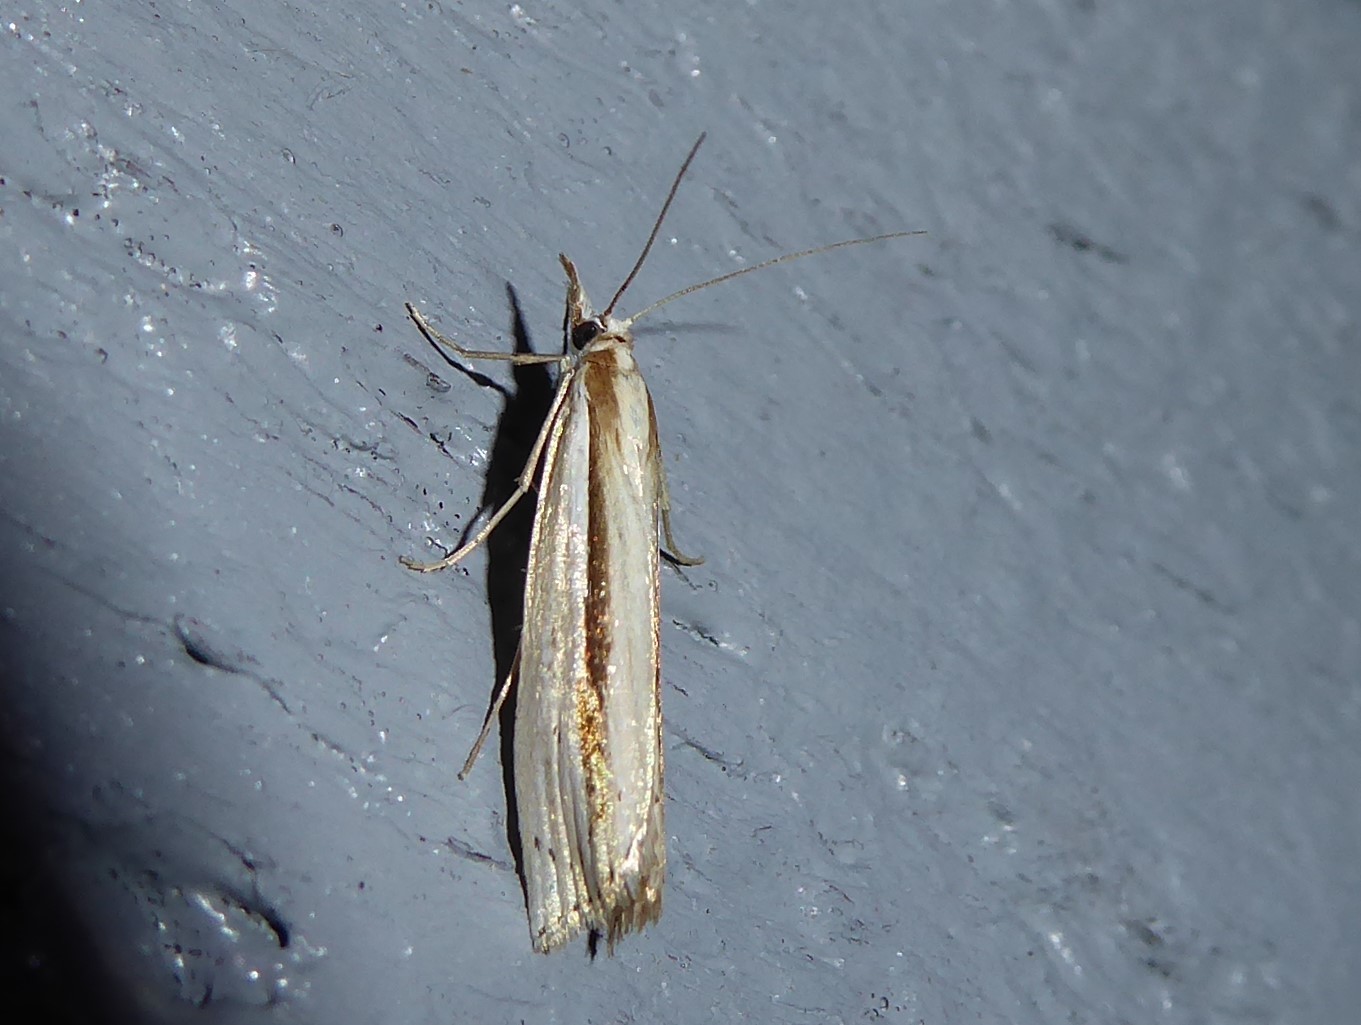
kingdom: Animalia
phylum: Arthropoda
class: Insecta
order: Lepidoptera
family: Crambidae
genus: Orocrambus
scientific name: Orocrambus ramosellus
